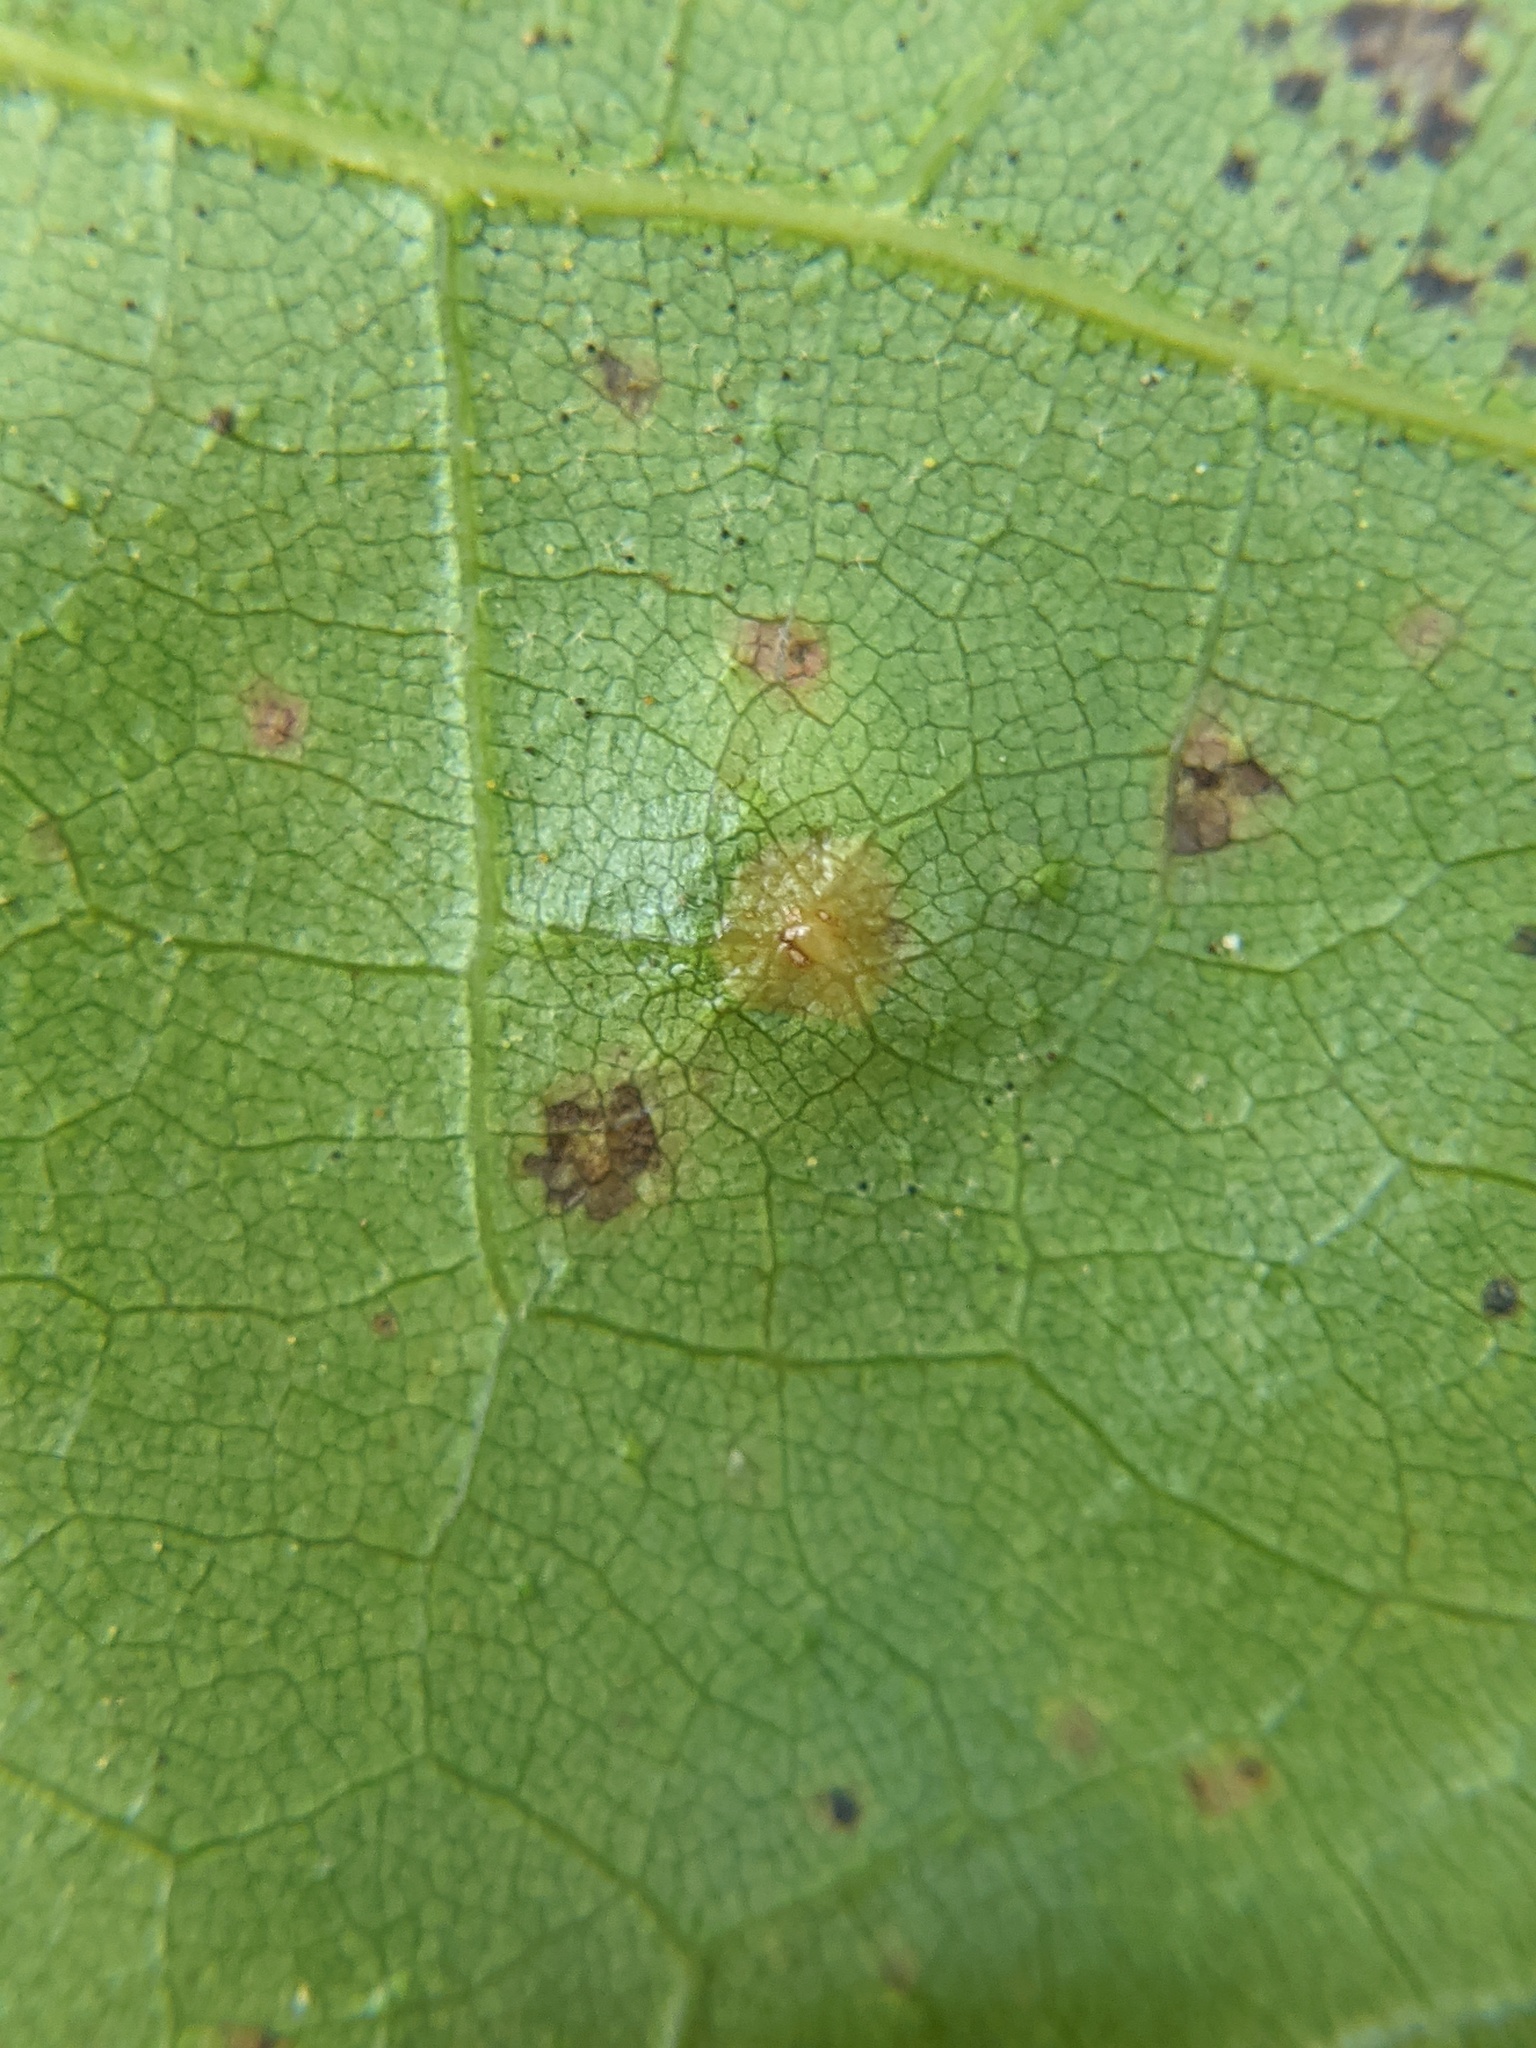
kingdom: Animalia
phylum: Arthropoda
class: Insecta
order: Diptera
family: Cecidomyiidae
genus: Polystepha
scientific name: Polystepha pilulae
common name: Oak leaf gall midge
